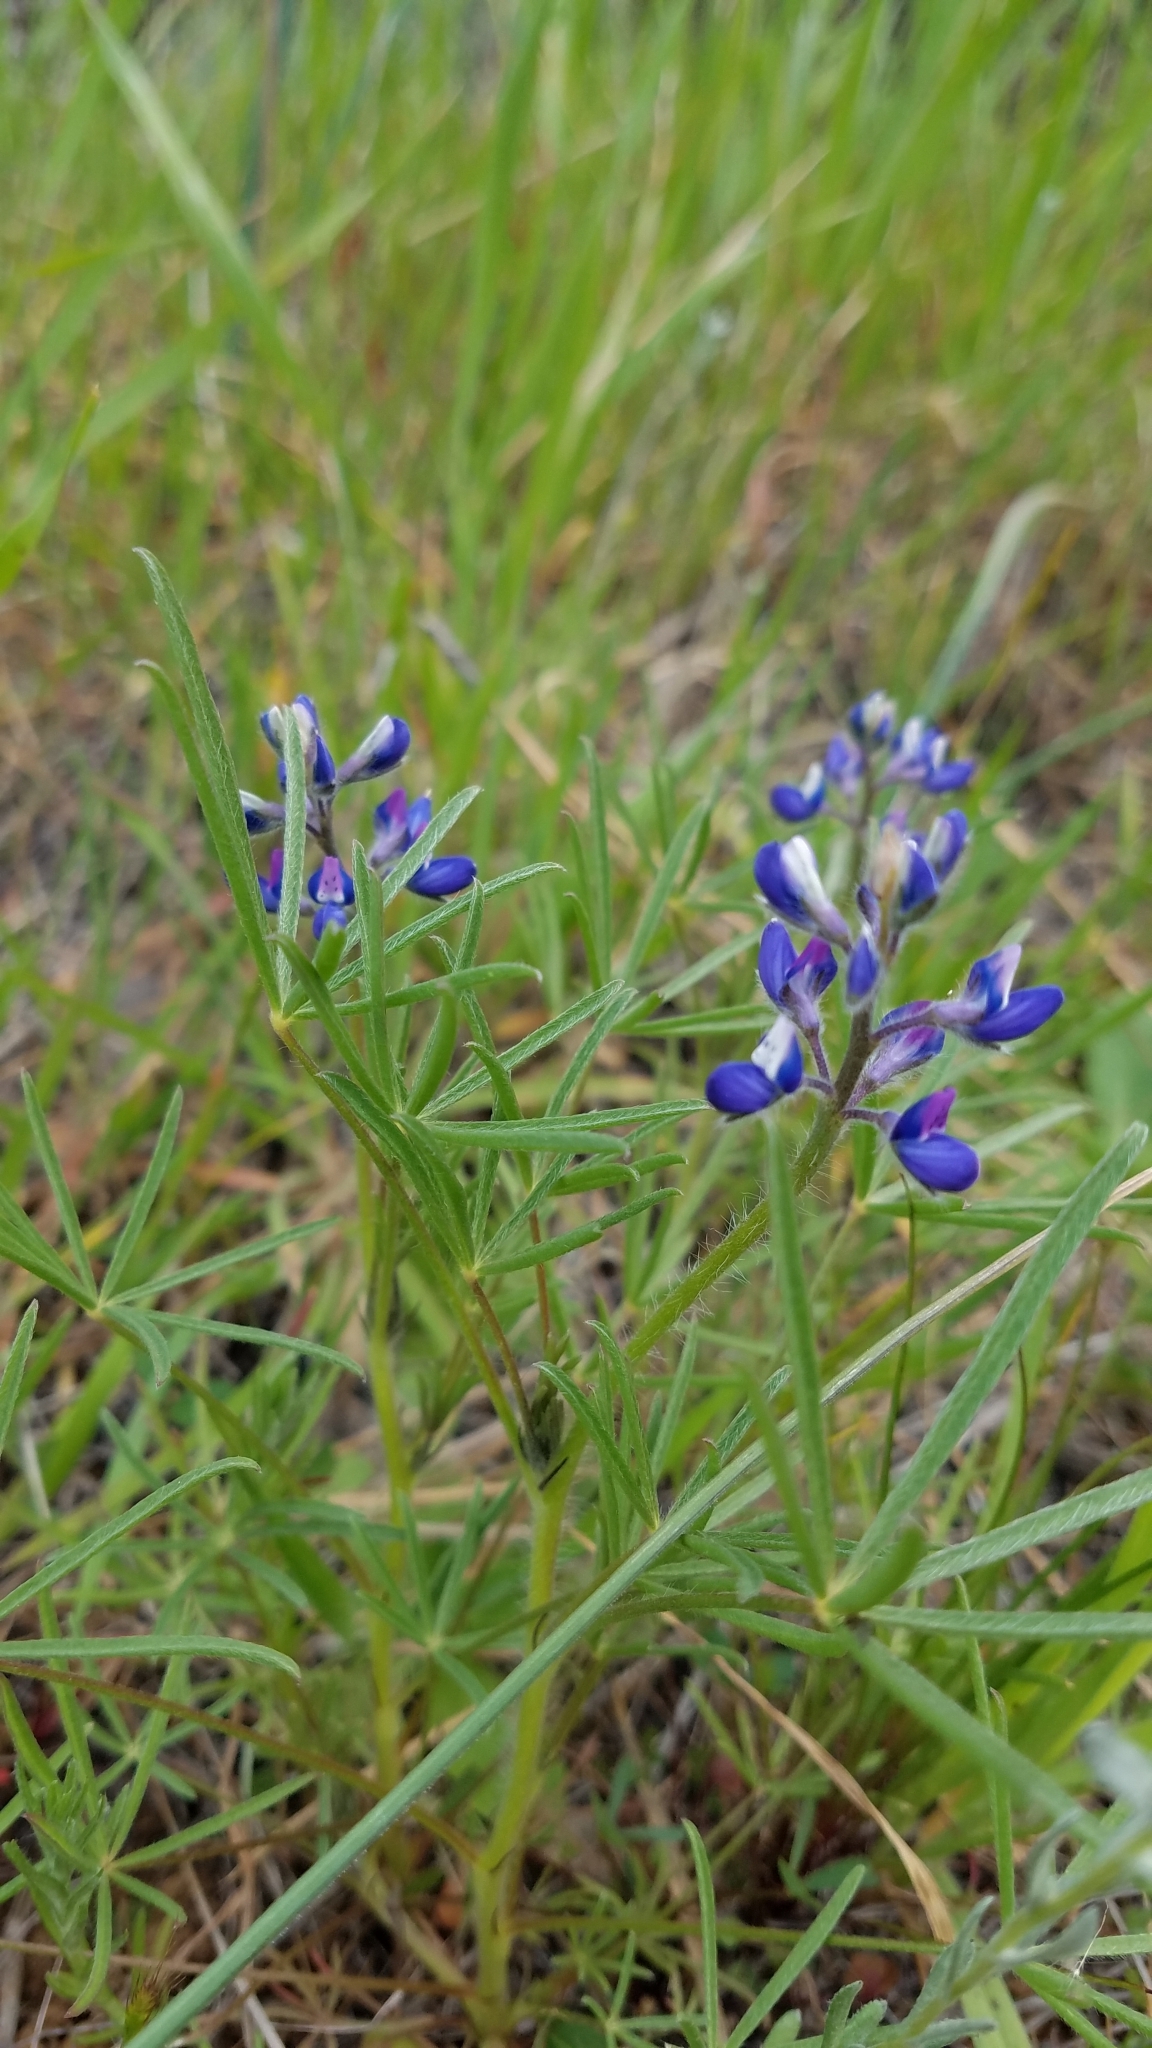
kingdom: Plantae
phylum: Tracheophyta
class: Magnoliopsida
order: Fabales
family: Fabaceae
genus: Lupinus
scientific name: Lupinus bicolor
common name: Miniature lupine
